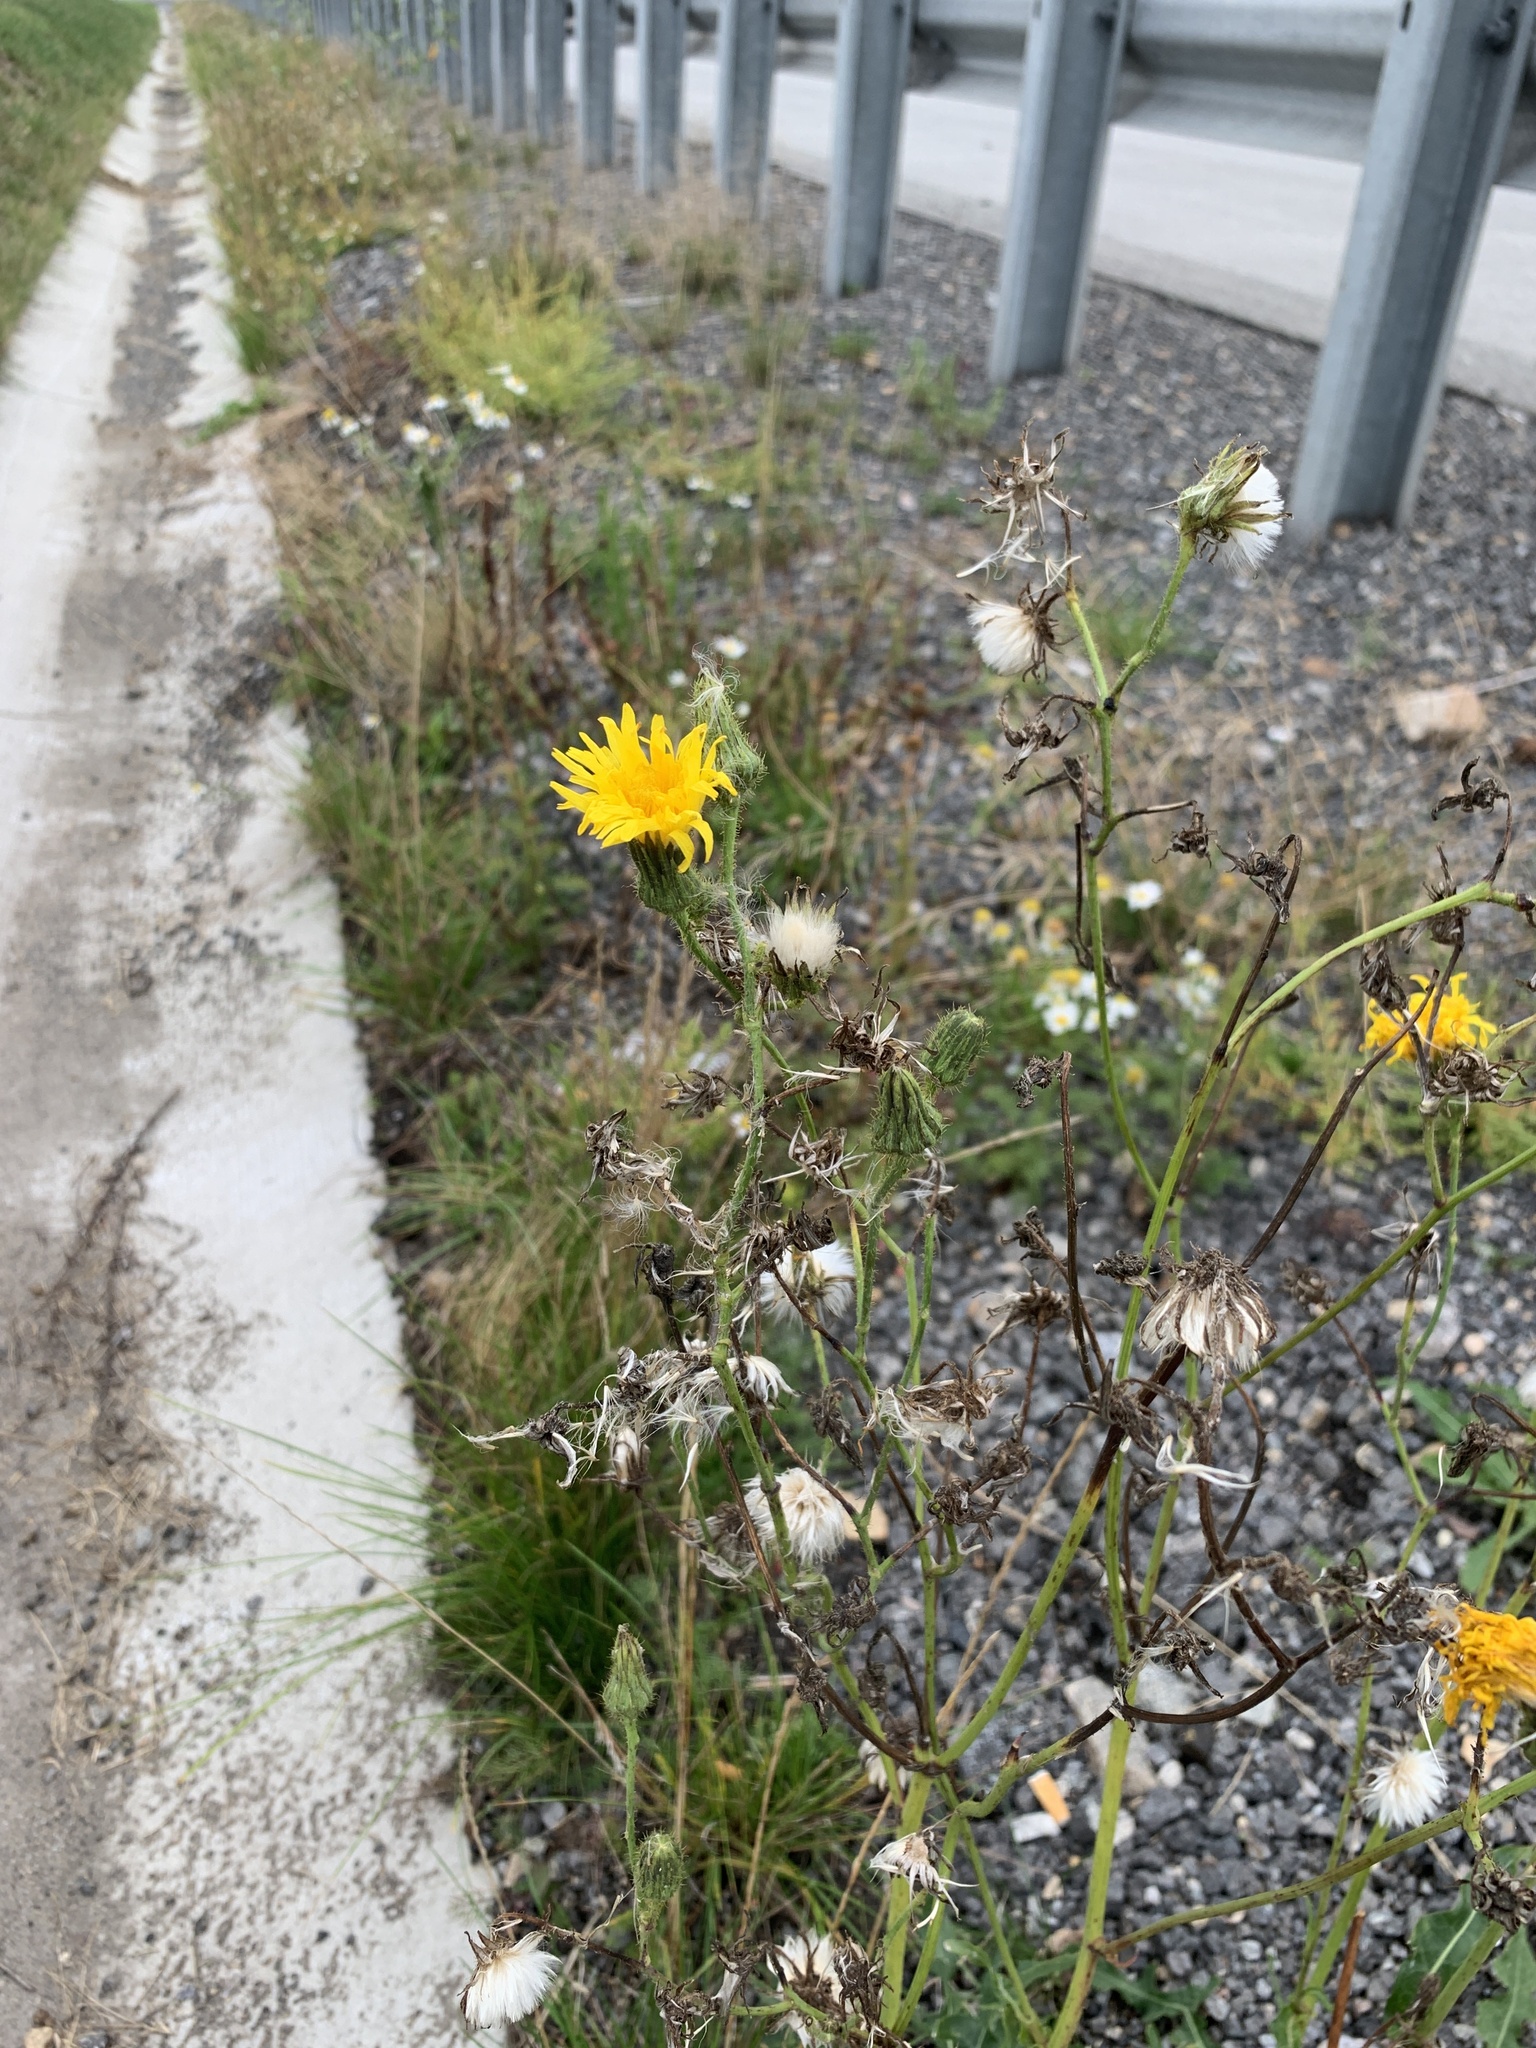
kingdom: Plantae
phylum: Tracheophyta
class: Magnoliopsida
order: Asterales
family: Asteraceae
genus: Sonchus
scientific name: Sonchus arvensis
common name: Perennial sow-thistle
